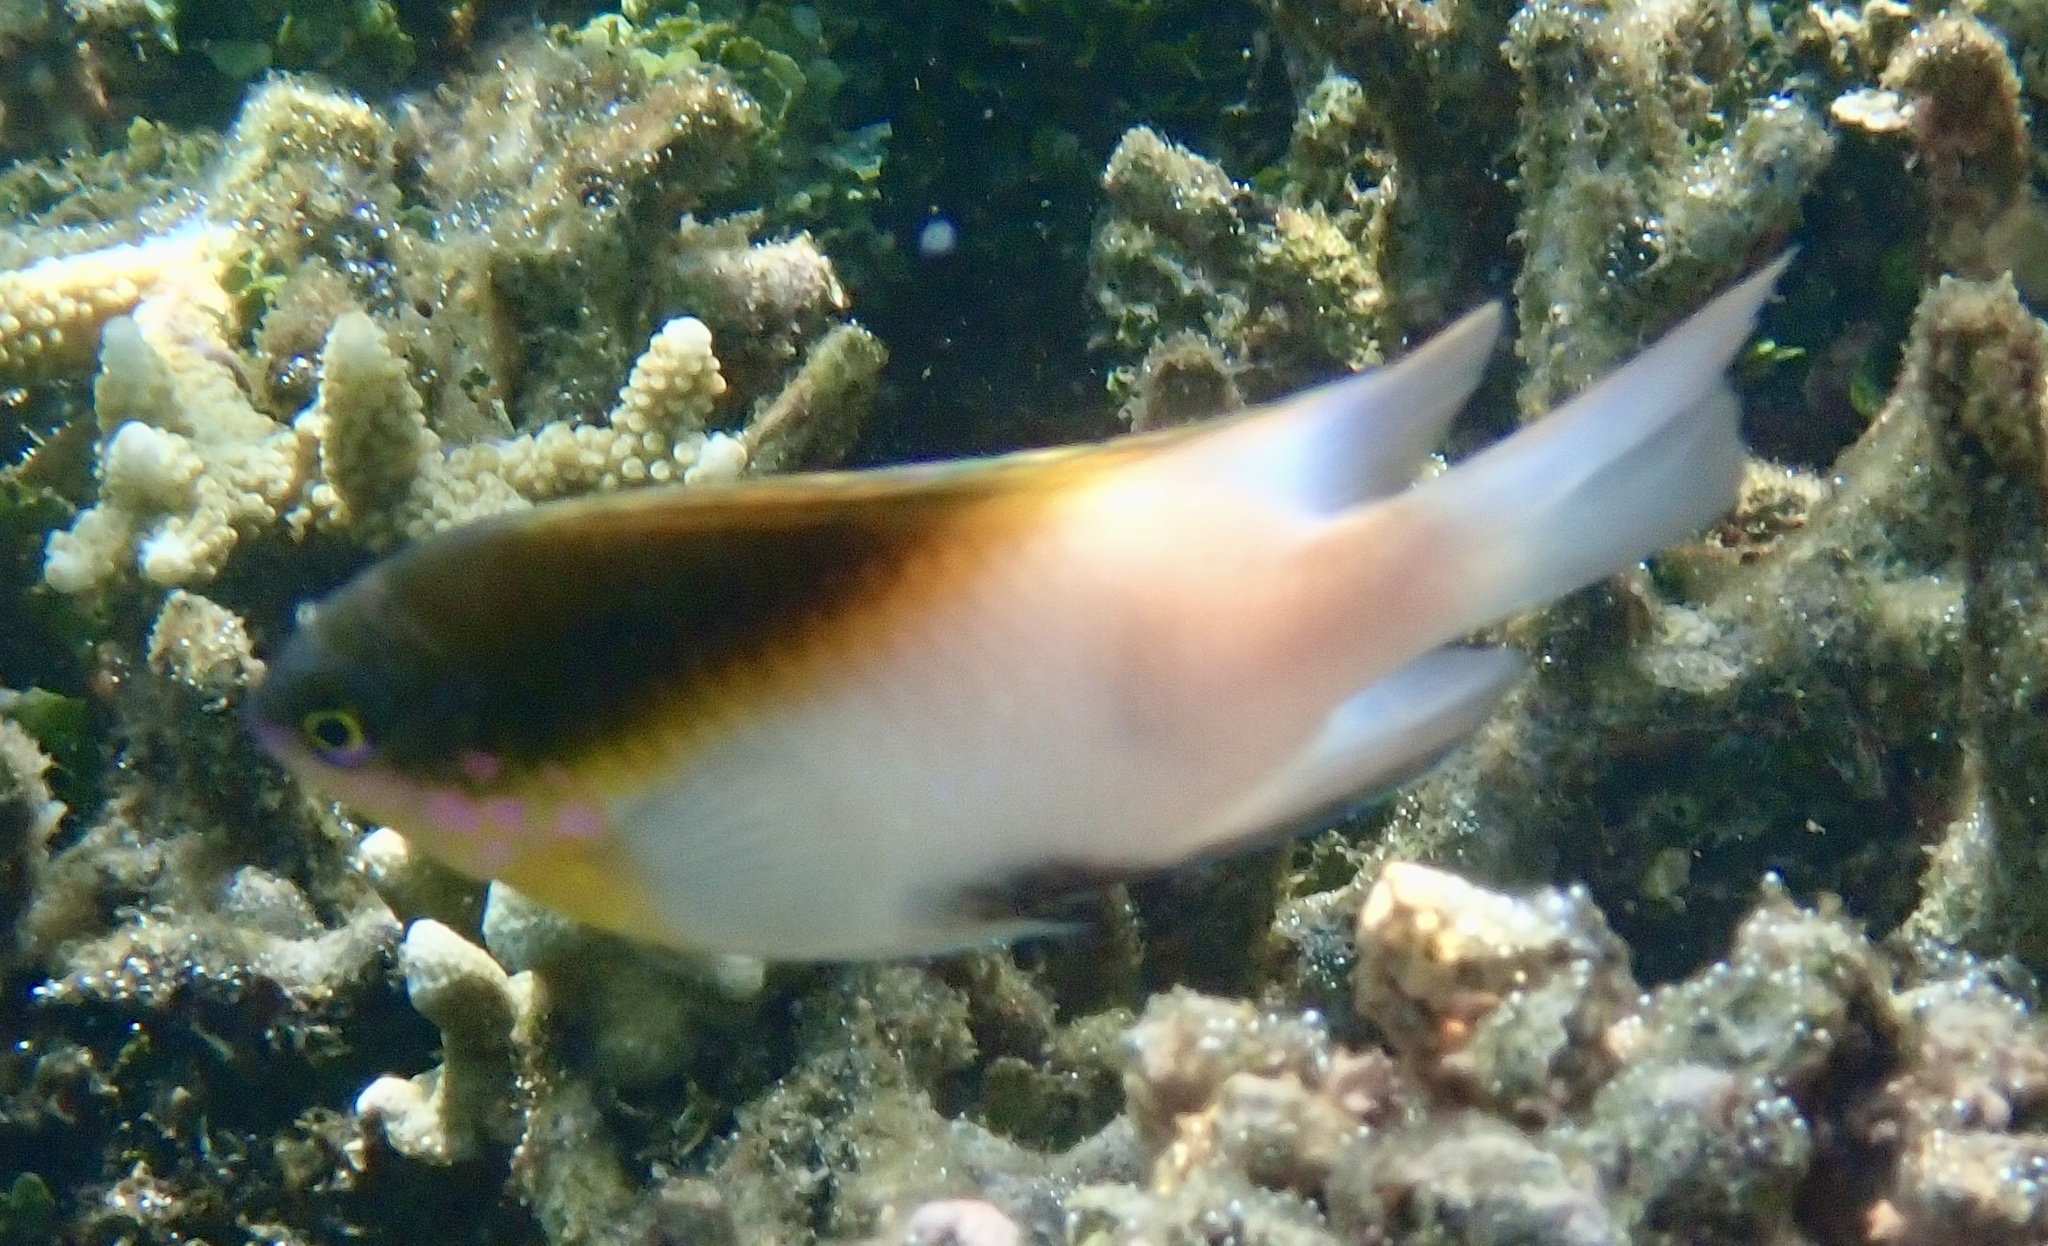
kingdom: Animalia
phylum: Chordata
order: Perciformes
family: Pomacentridae
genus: Dischistodus
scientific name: Dischistodus melanotus
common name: Black-vent damsel
